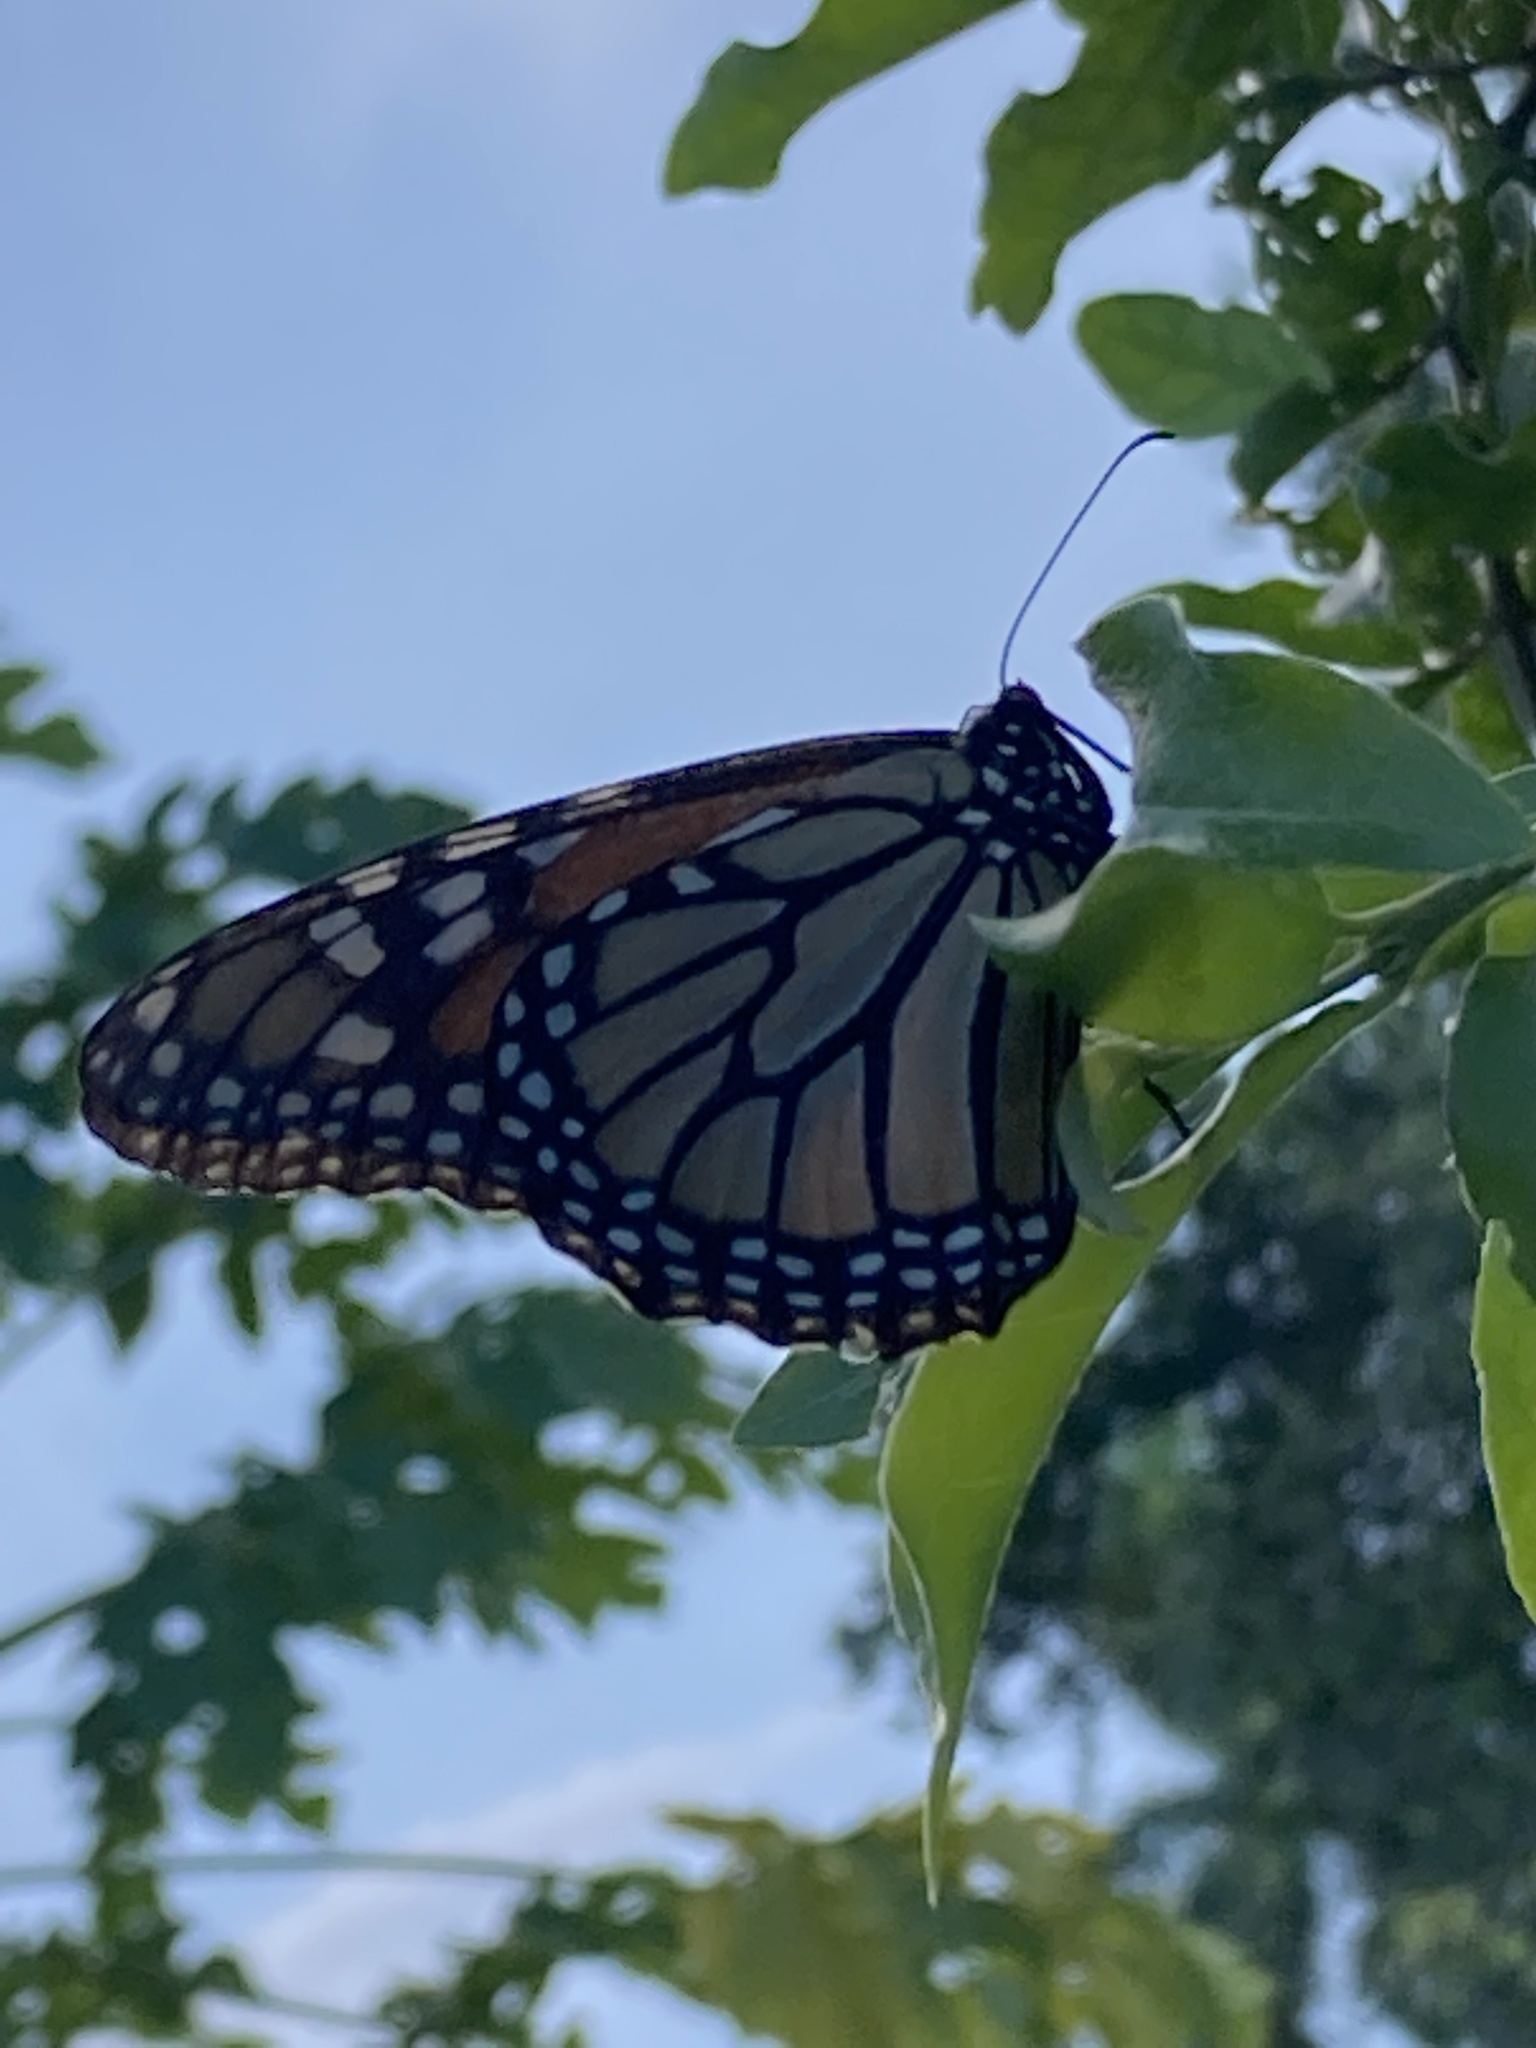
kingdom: Animalia
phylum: Arthropoda
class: Insecta
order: Lepidoptera
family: Nymphalidae
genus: Danaus
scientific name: Danaus plexippus
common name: Monarch
